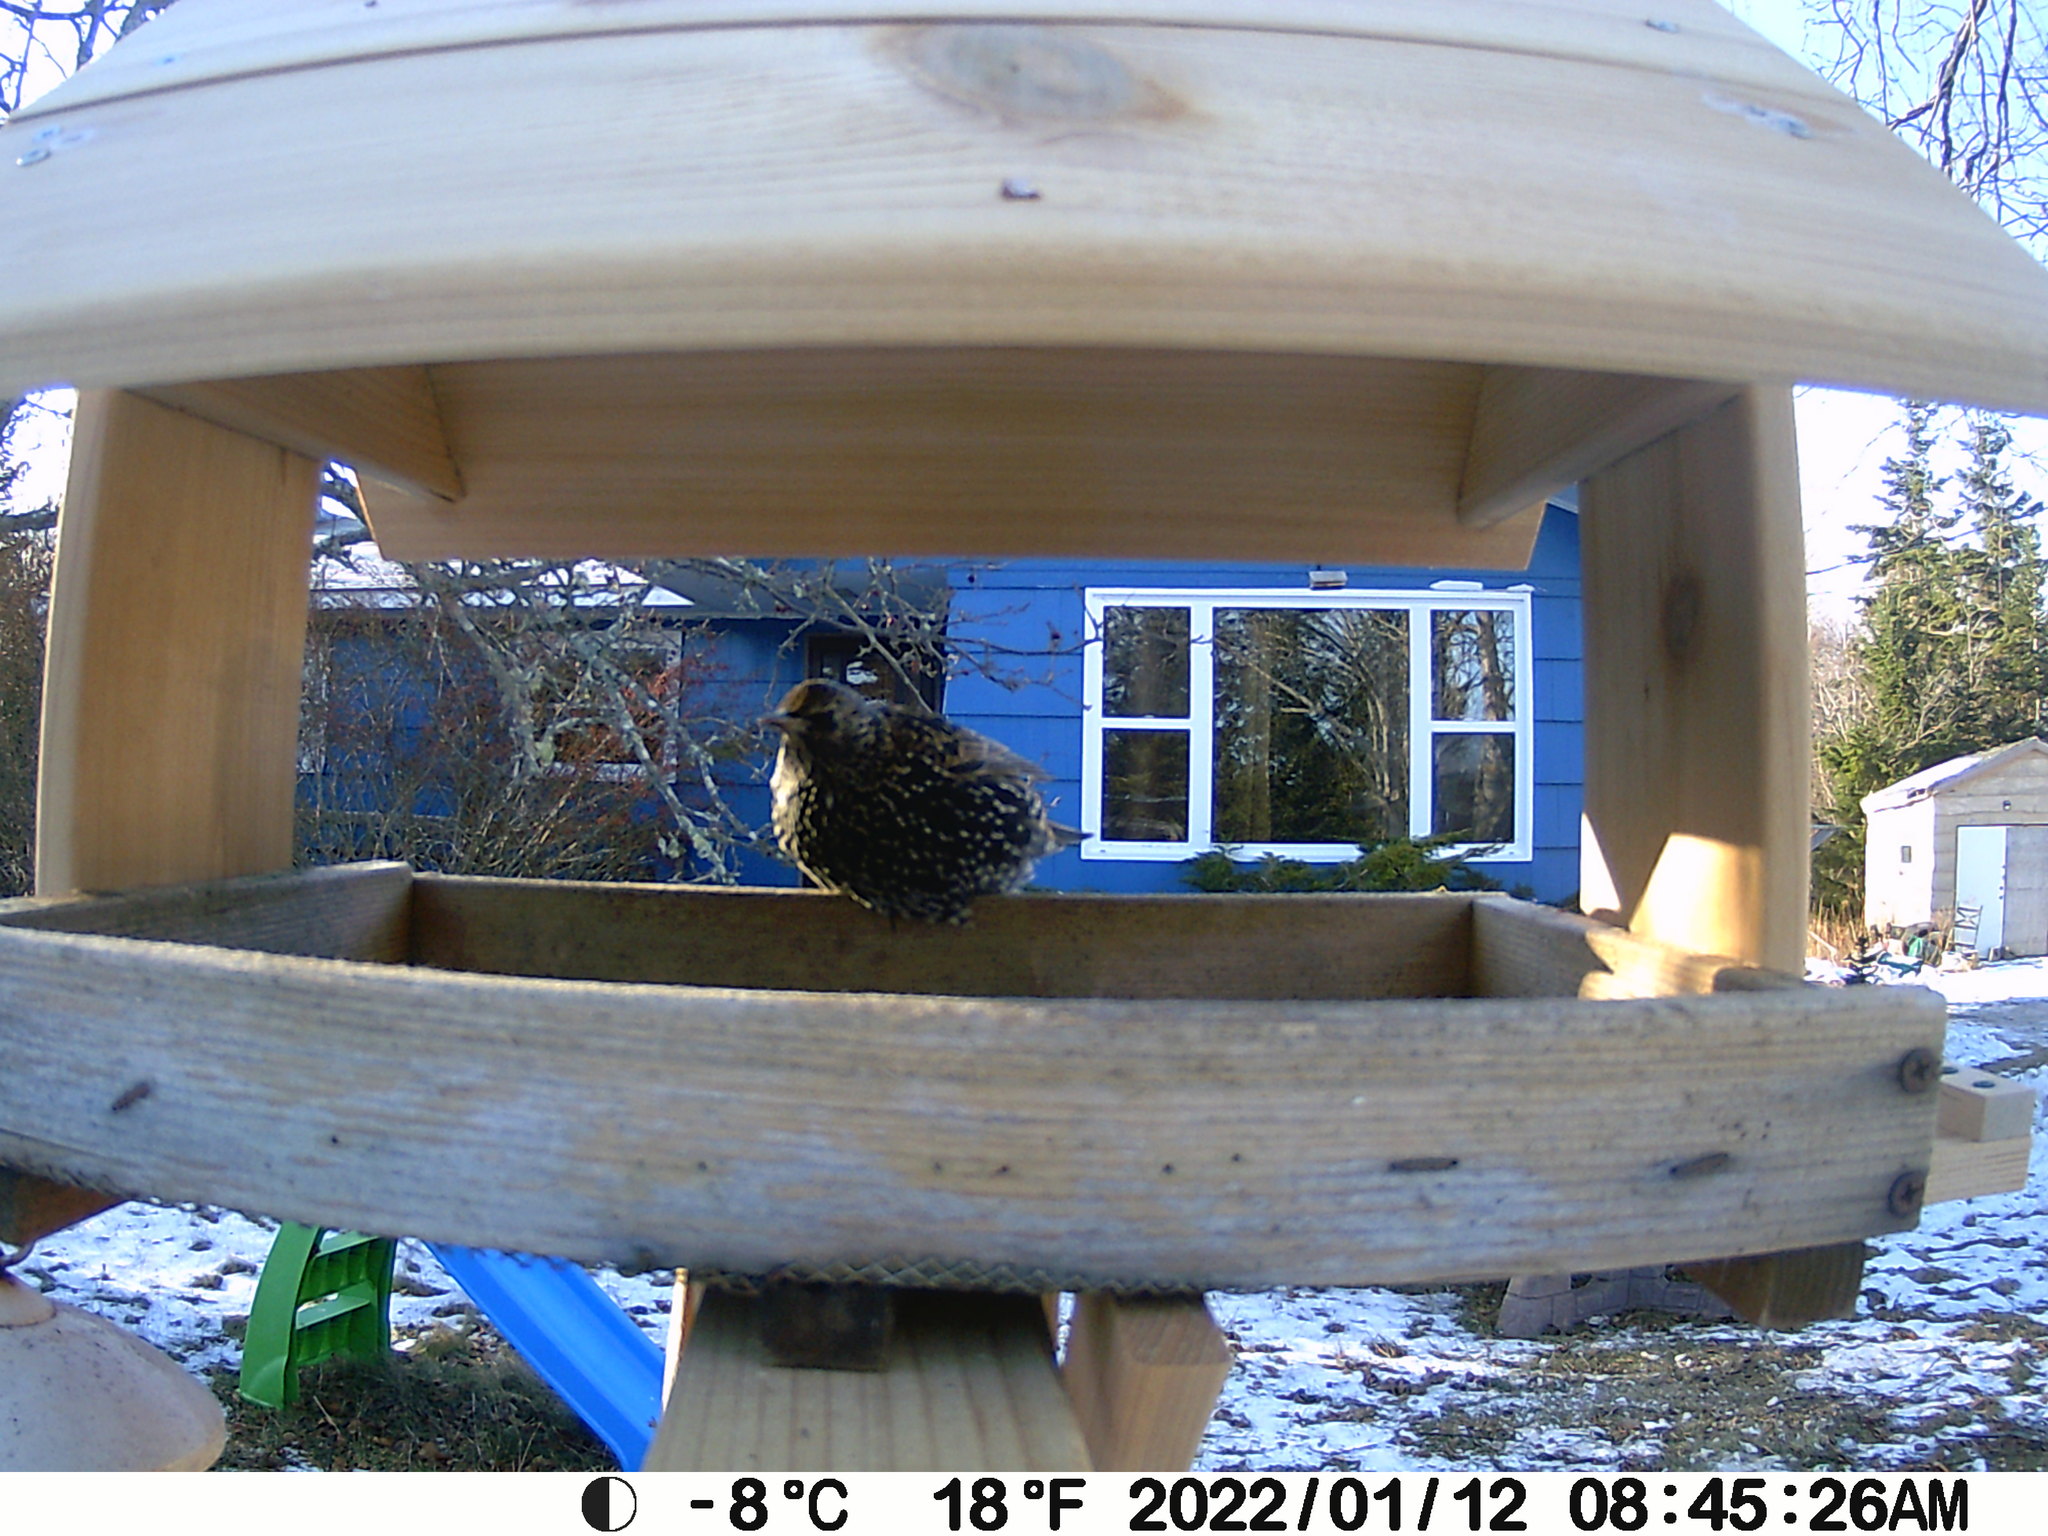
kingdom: Animalia
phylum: Chordata
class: Aves
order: Passeriformes
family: Sturnidae
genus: Sturnus
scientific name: Sturnus vulgaris
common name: Common starling
